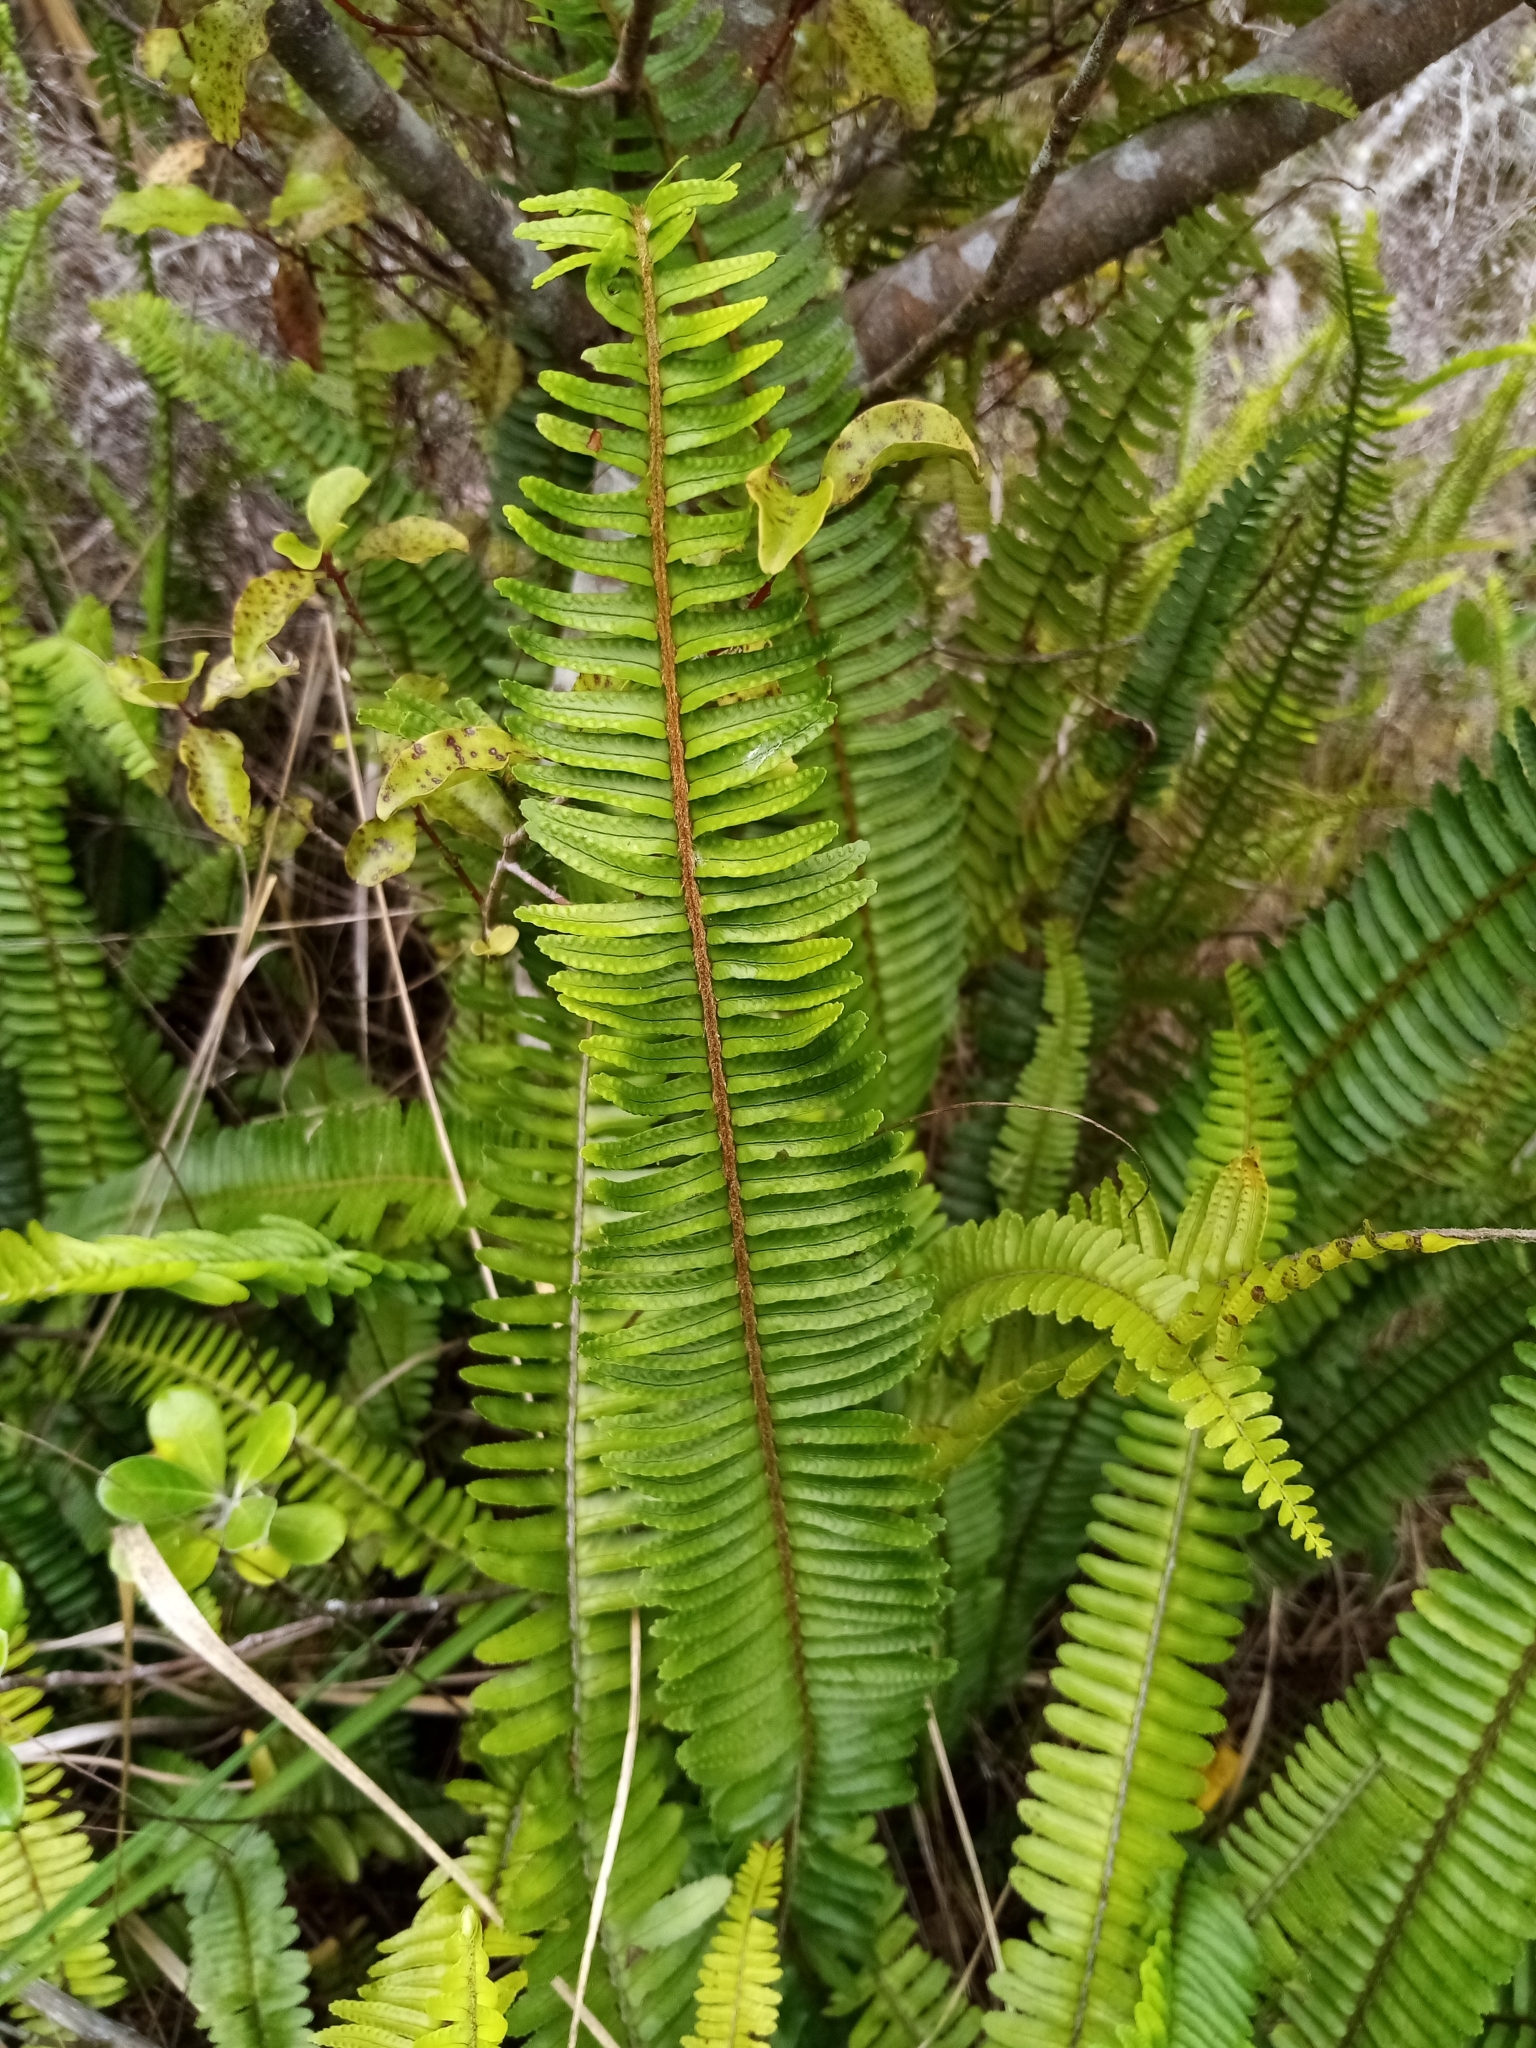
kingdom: Plantae
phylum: Tracheophyta
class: Polypodiopsida
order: Polypodiales
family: Nephrolepidaceae
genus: Nephrolepis
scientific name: Nephrolepis cordifolia
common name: Narrow swordfern
